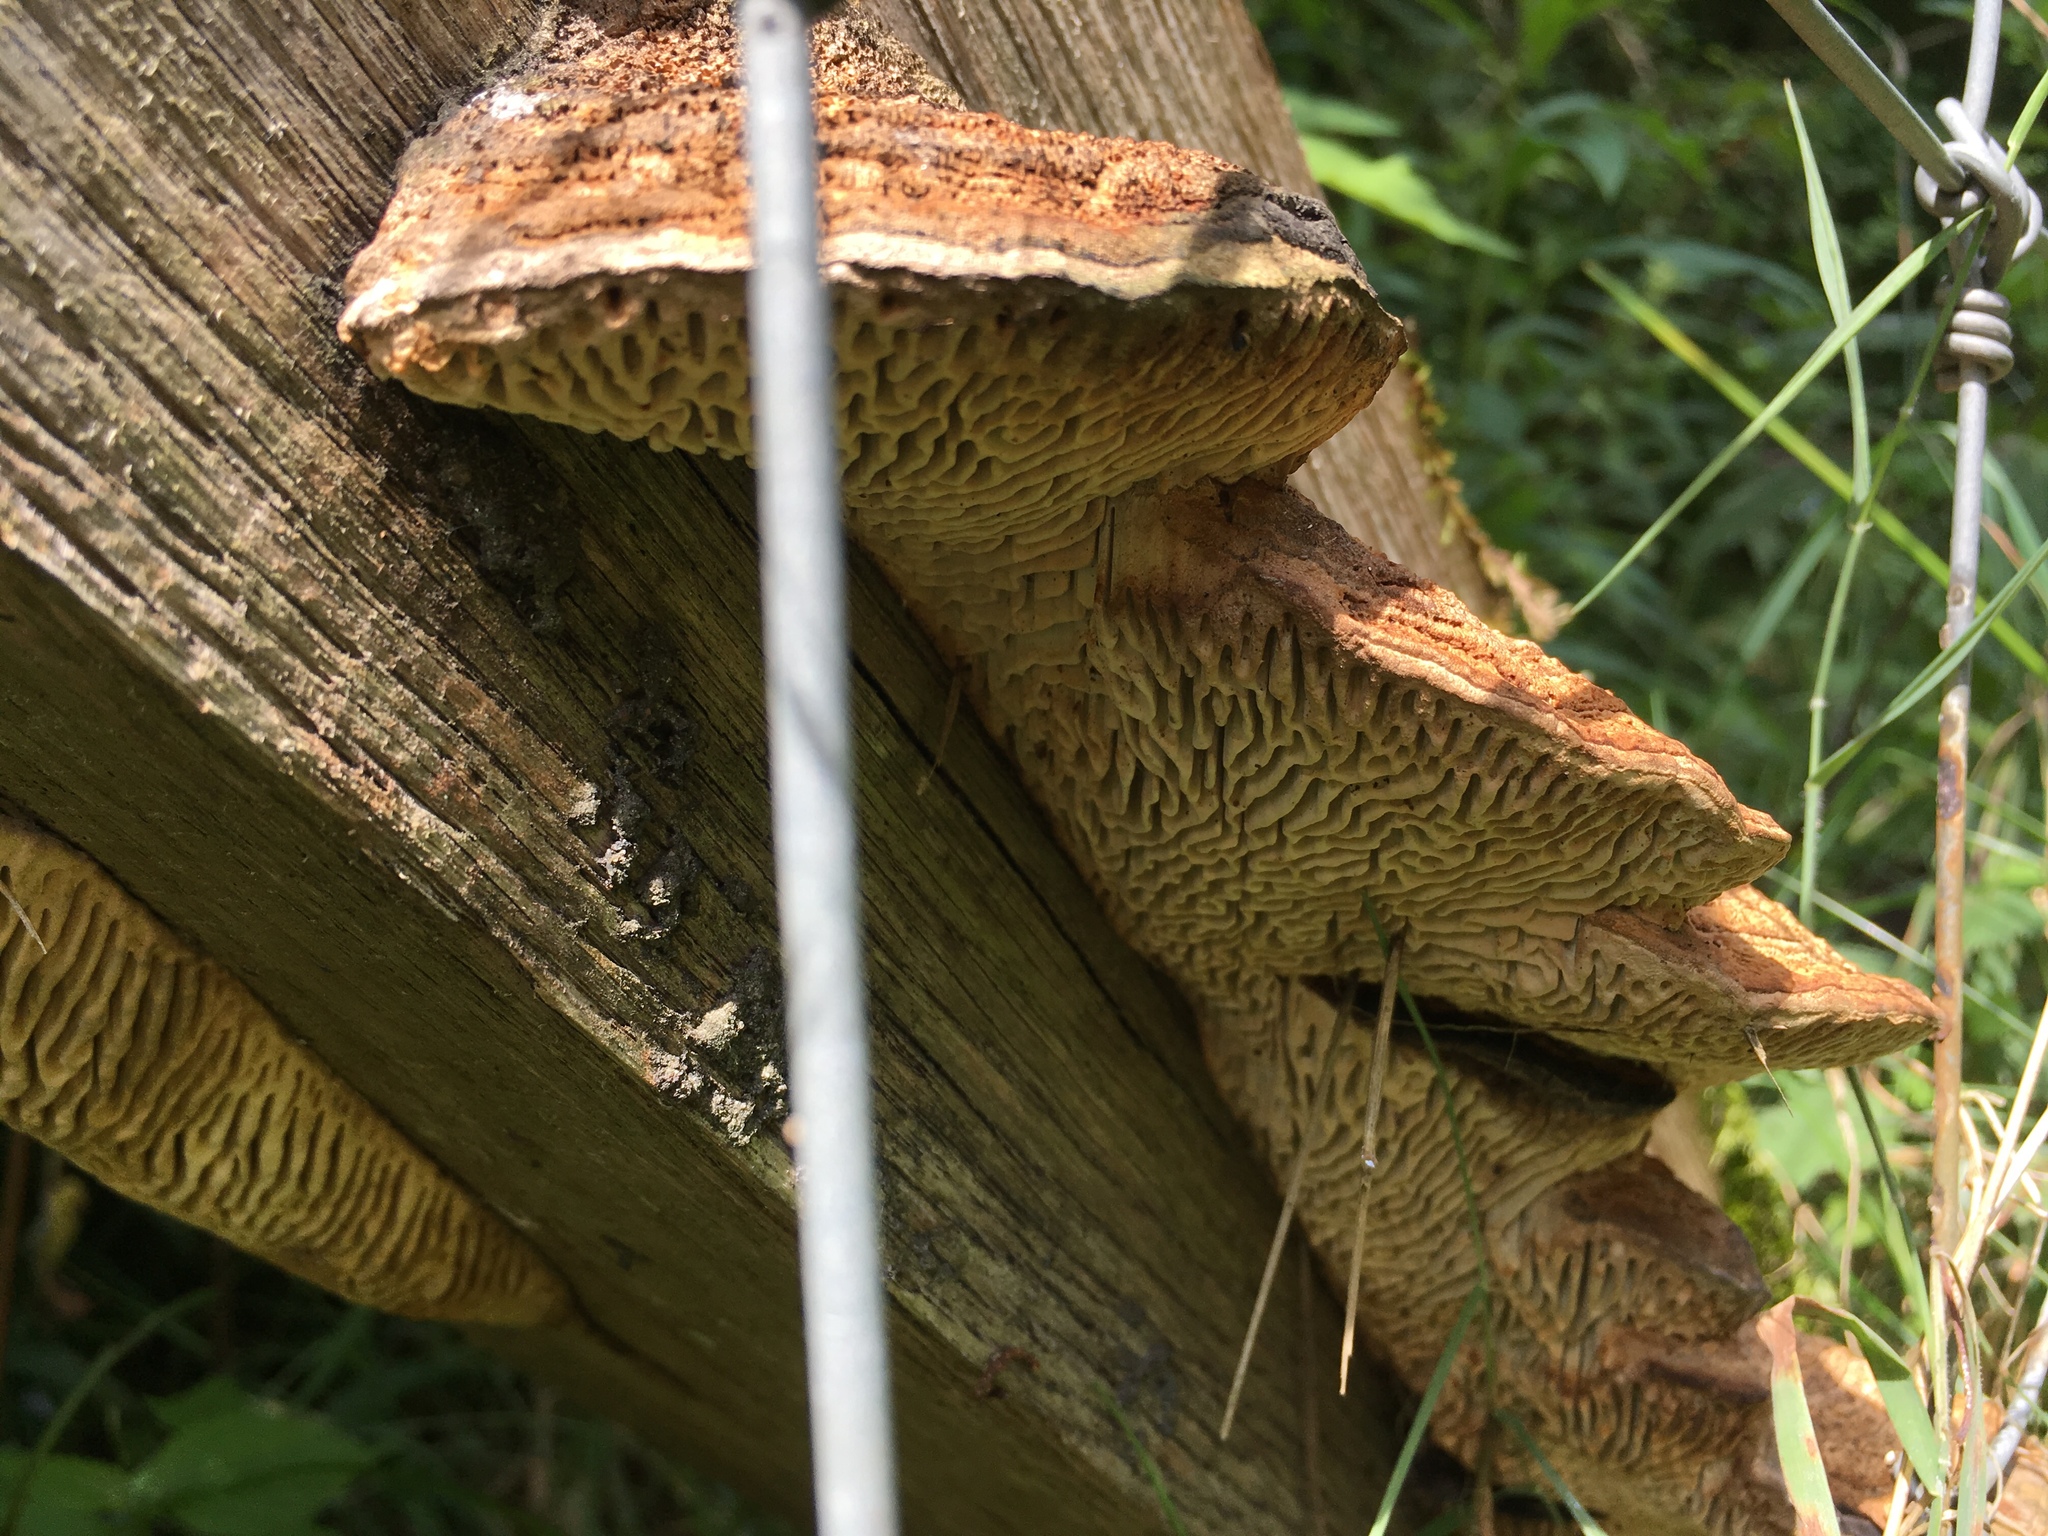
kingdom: Fungi
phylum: Basidiomycota
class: Agaricomycetes
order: Polyporales
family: Fomitopsidaceae
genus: Fomitopsis
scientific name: Fomitopsis
